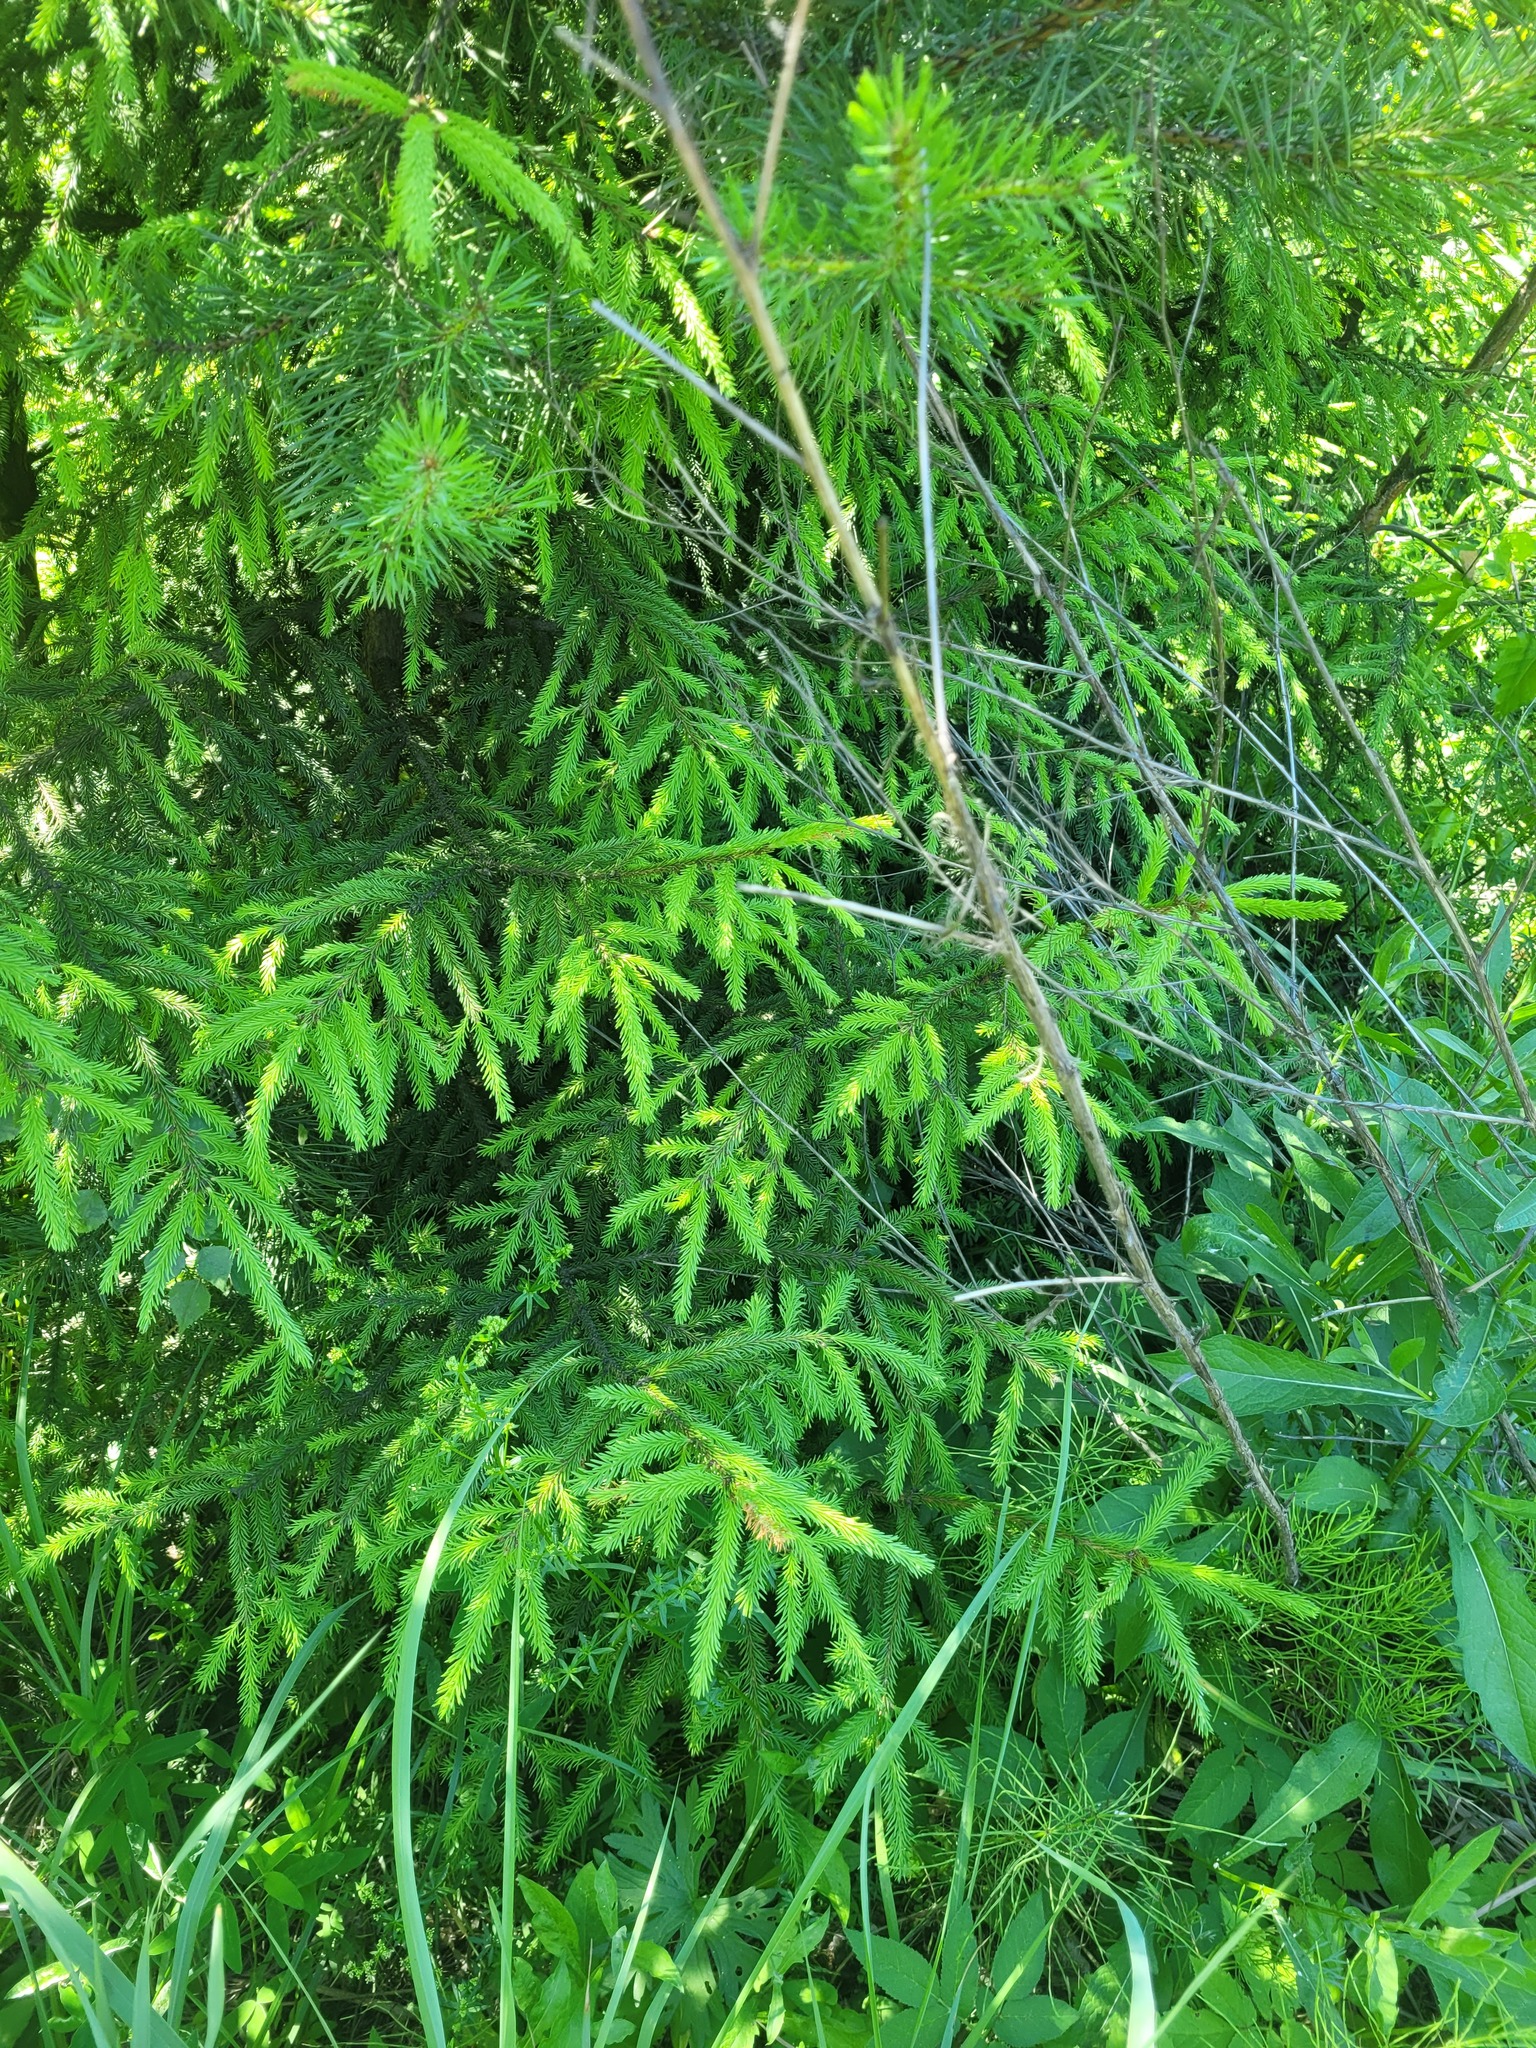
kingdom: Plantae
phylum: Tracheophyta
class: Pinopsida
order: Pinales
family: Pinaceae
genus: Picea
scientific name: Picea abies
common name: Norway spruce
